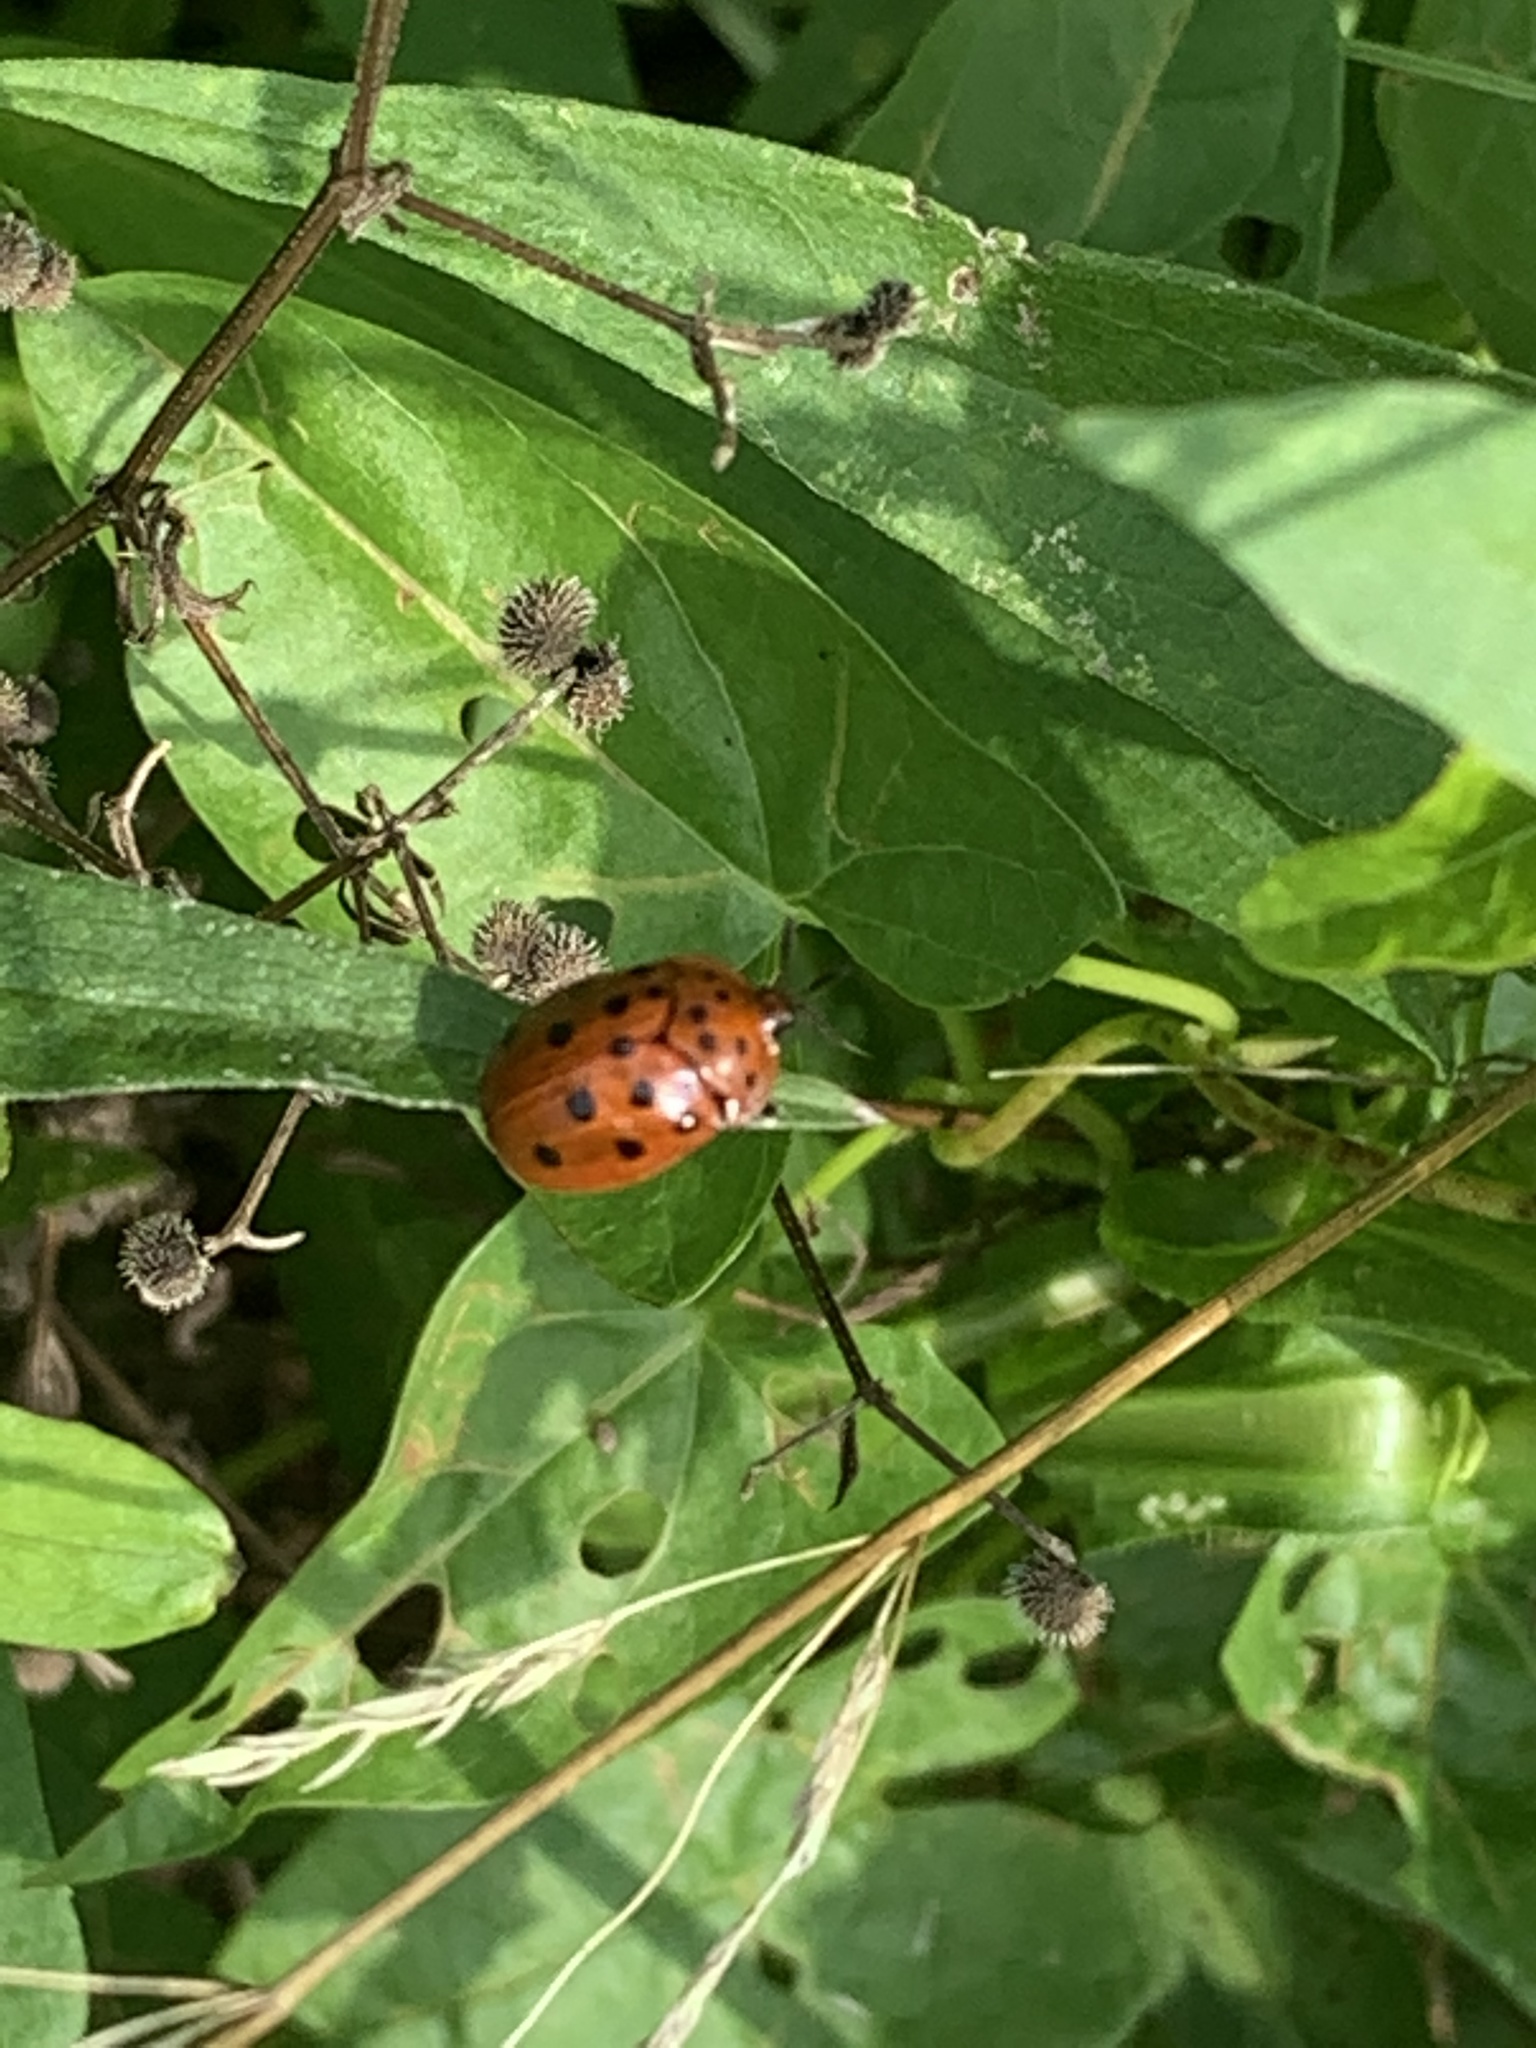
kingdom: Animalia
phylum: Arthropoda
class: Insecta
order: Coleoptera
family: Chrysomelidae
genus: Chelymorpha
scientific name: Chelymorpha cassidea
